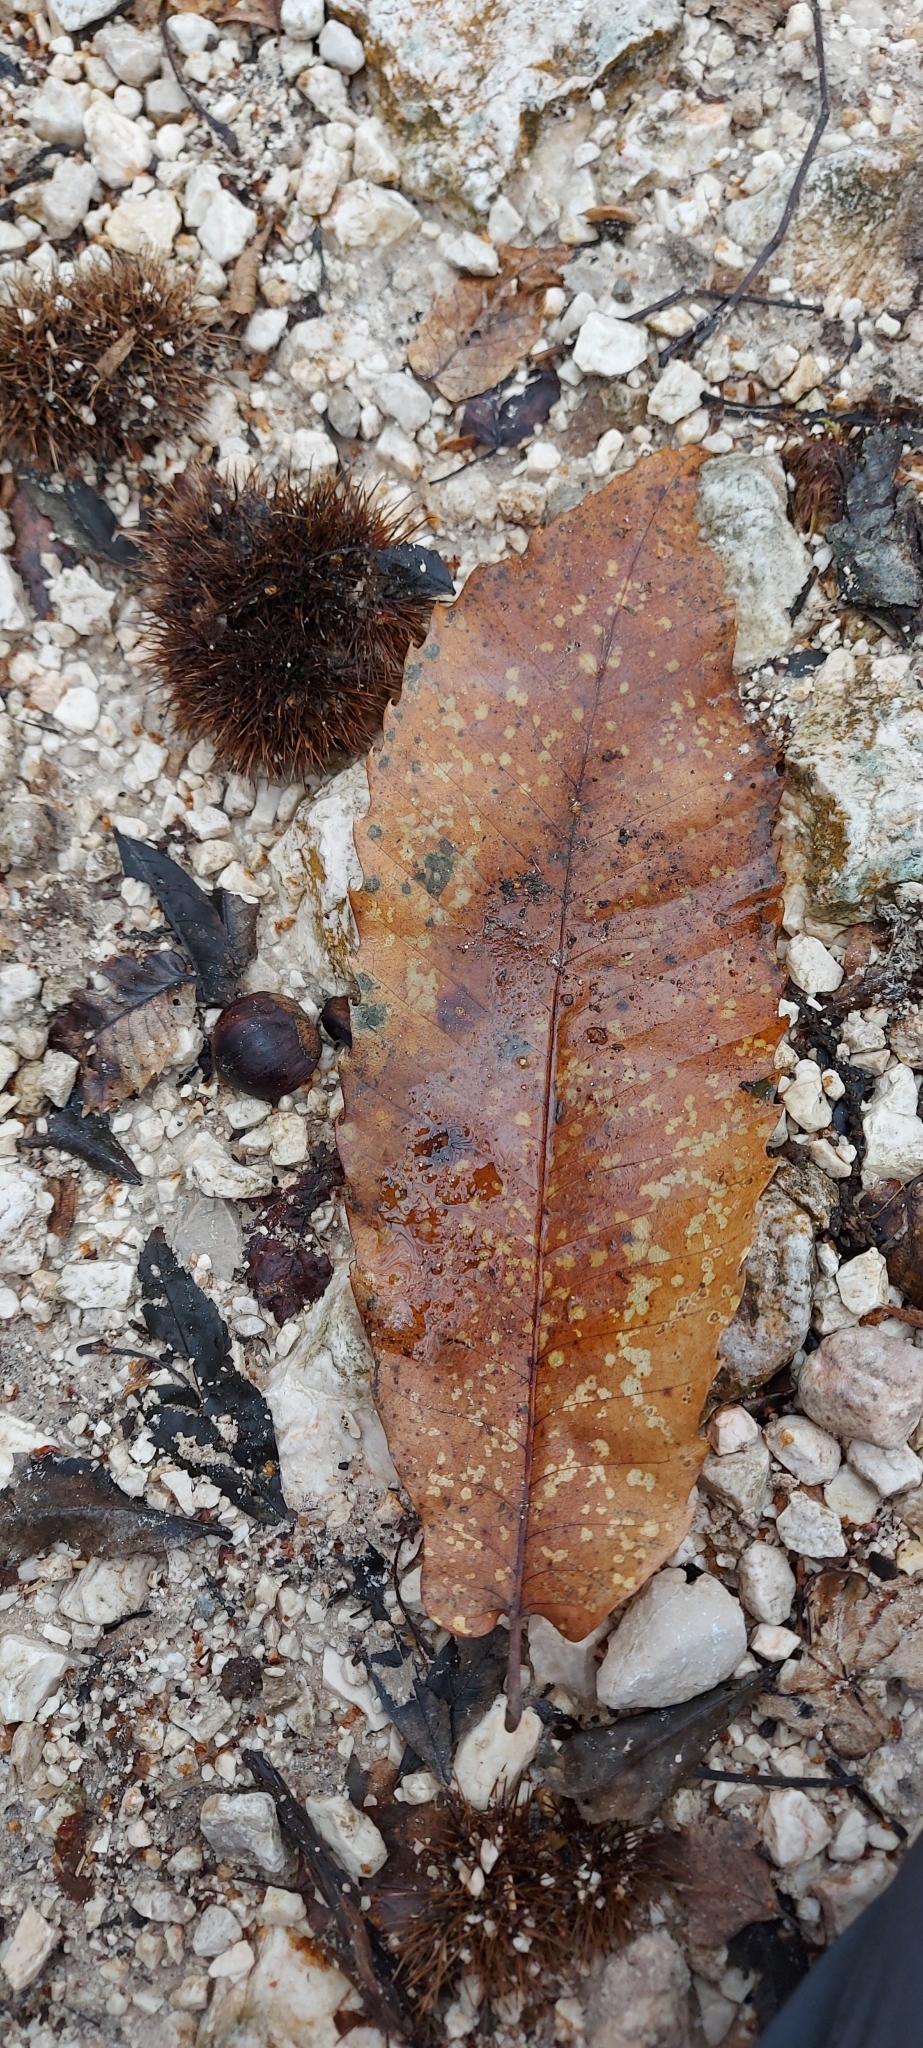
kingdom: Plantae
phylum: Tracheophyta
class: Magnoliopsida
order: Fagales
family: Fagaceae
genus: Castanea
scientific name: Castanea sativa
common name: Sweet chestnut
